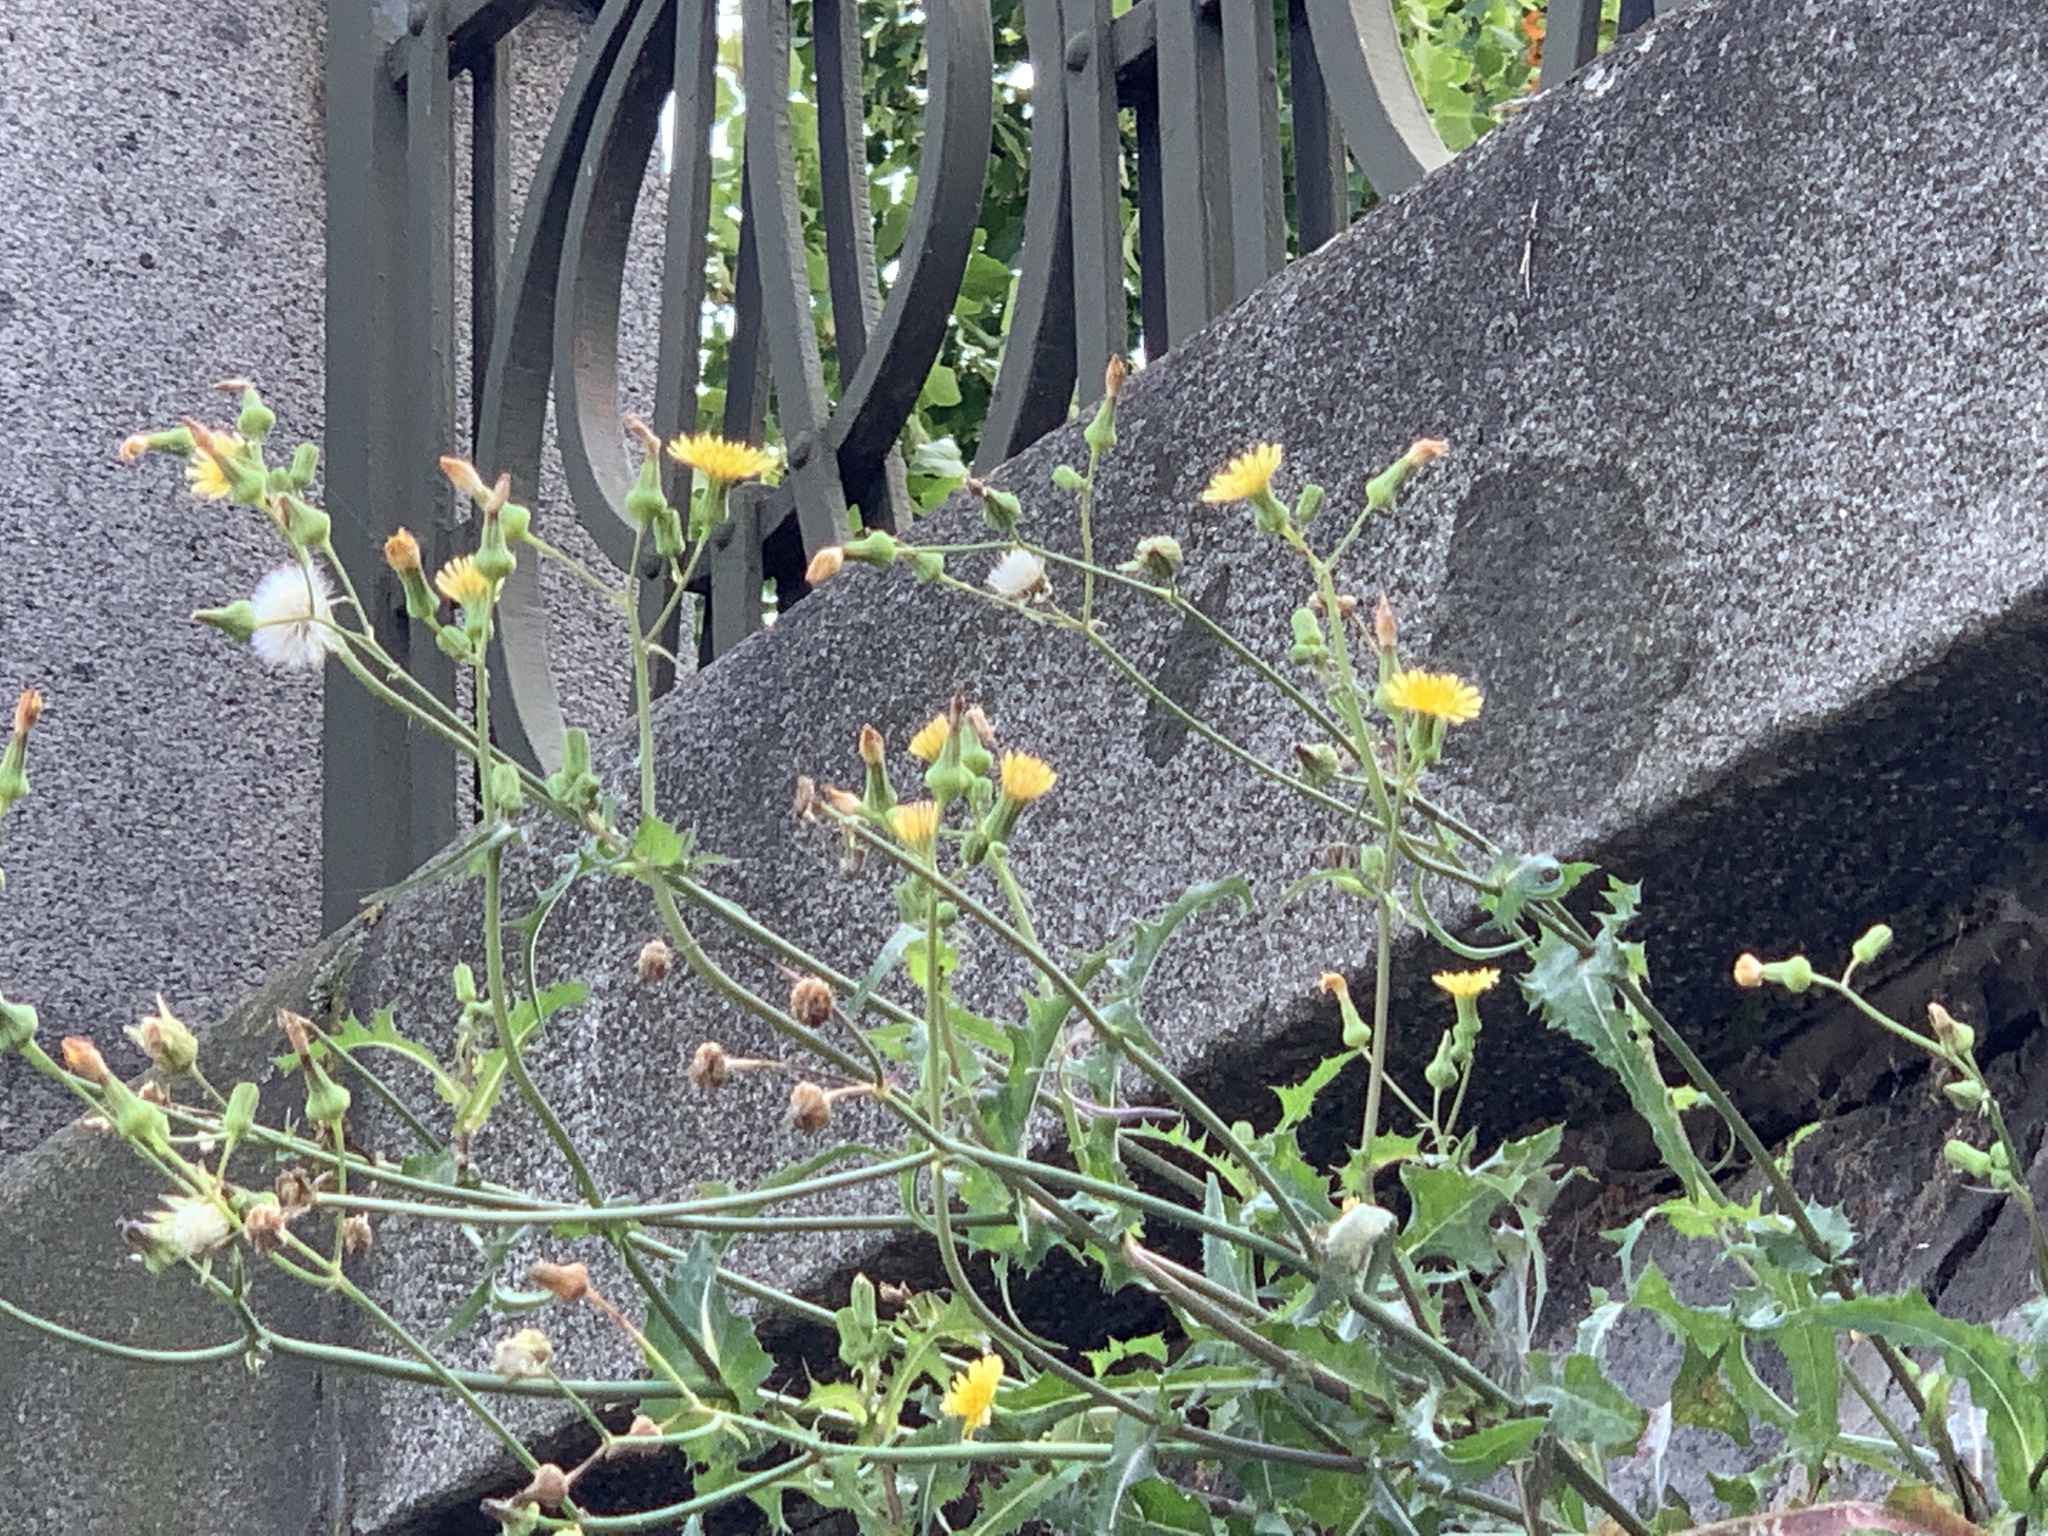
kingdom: Plantae
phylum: Tracheophyta
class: Magnoliopsida
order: Asterales
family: Asteraceae
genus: Sonchus
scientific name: Sonchus oleraceus
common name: Common sowthistle
